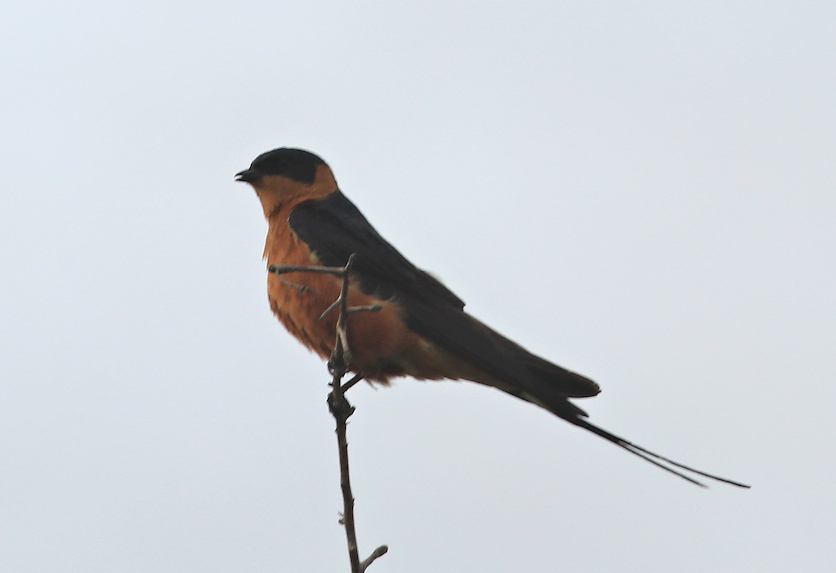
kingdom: Animalia
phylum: Chordata
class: Aves
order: Passeriformes
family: Hirundinidae
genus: Cecropis
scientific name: Cecropis semirufa
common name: Red-breasted swallow
